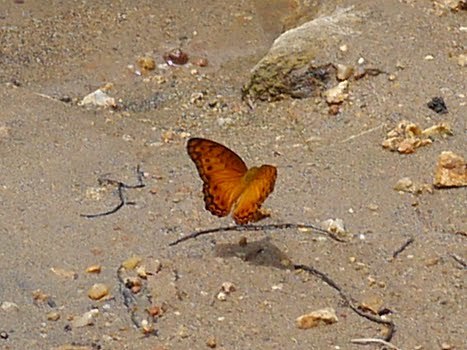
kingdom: Animalia
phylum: Arthropoda
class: Insecta
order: Lepidoptera
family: Nymphalidae
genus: Phalanta
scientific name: Phalanta columbina
